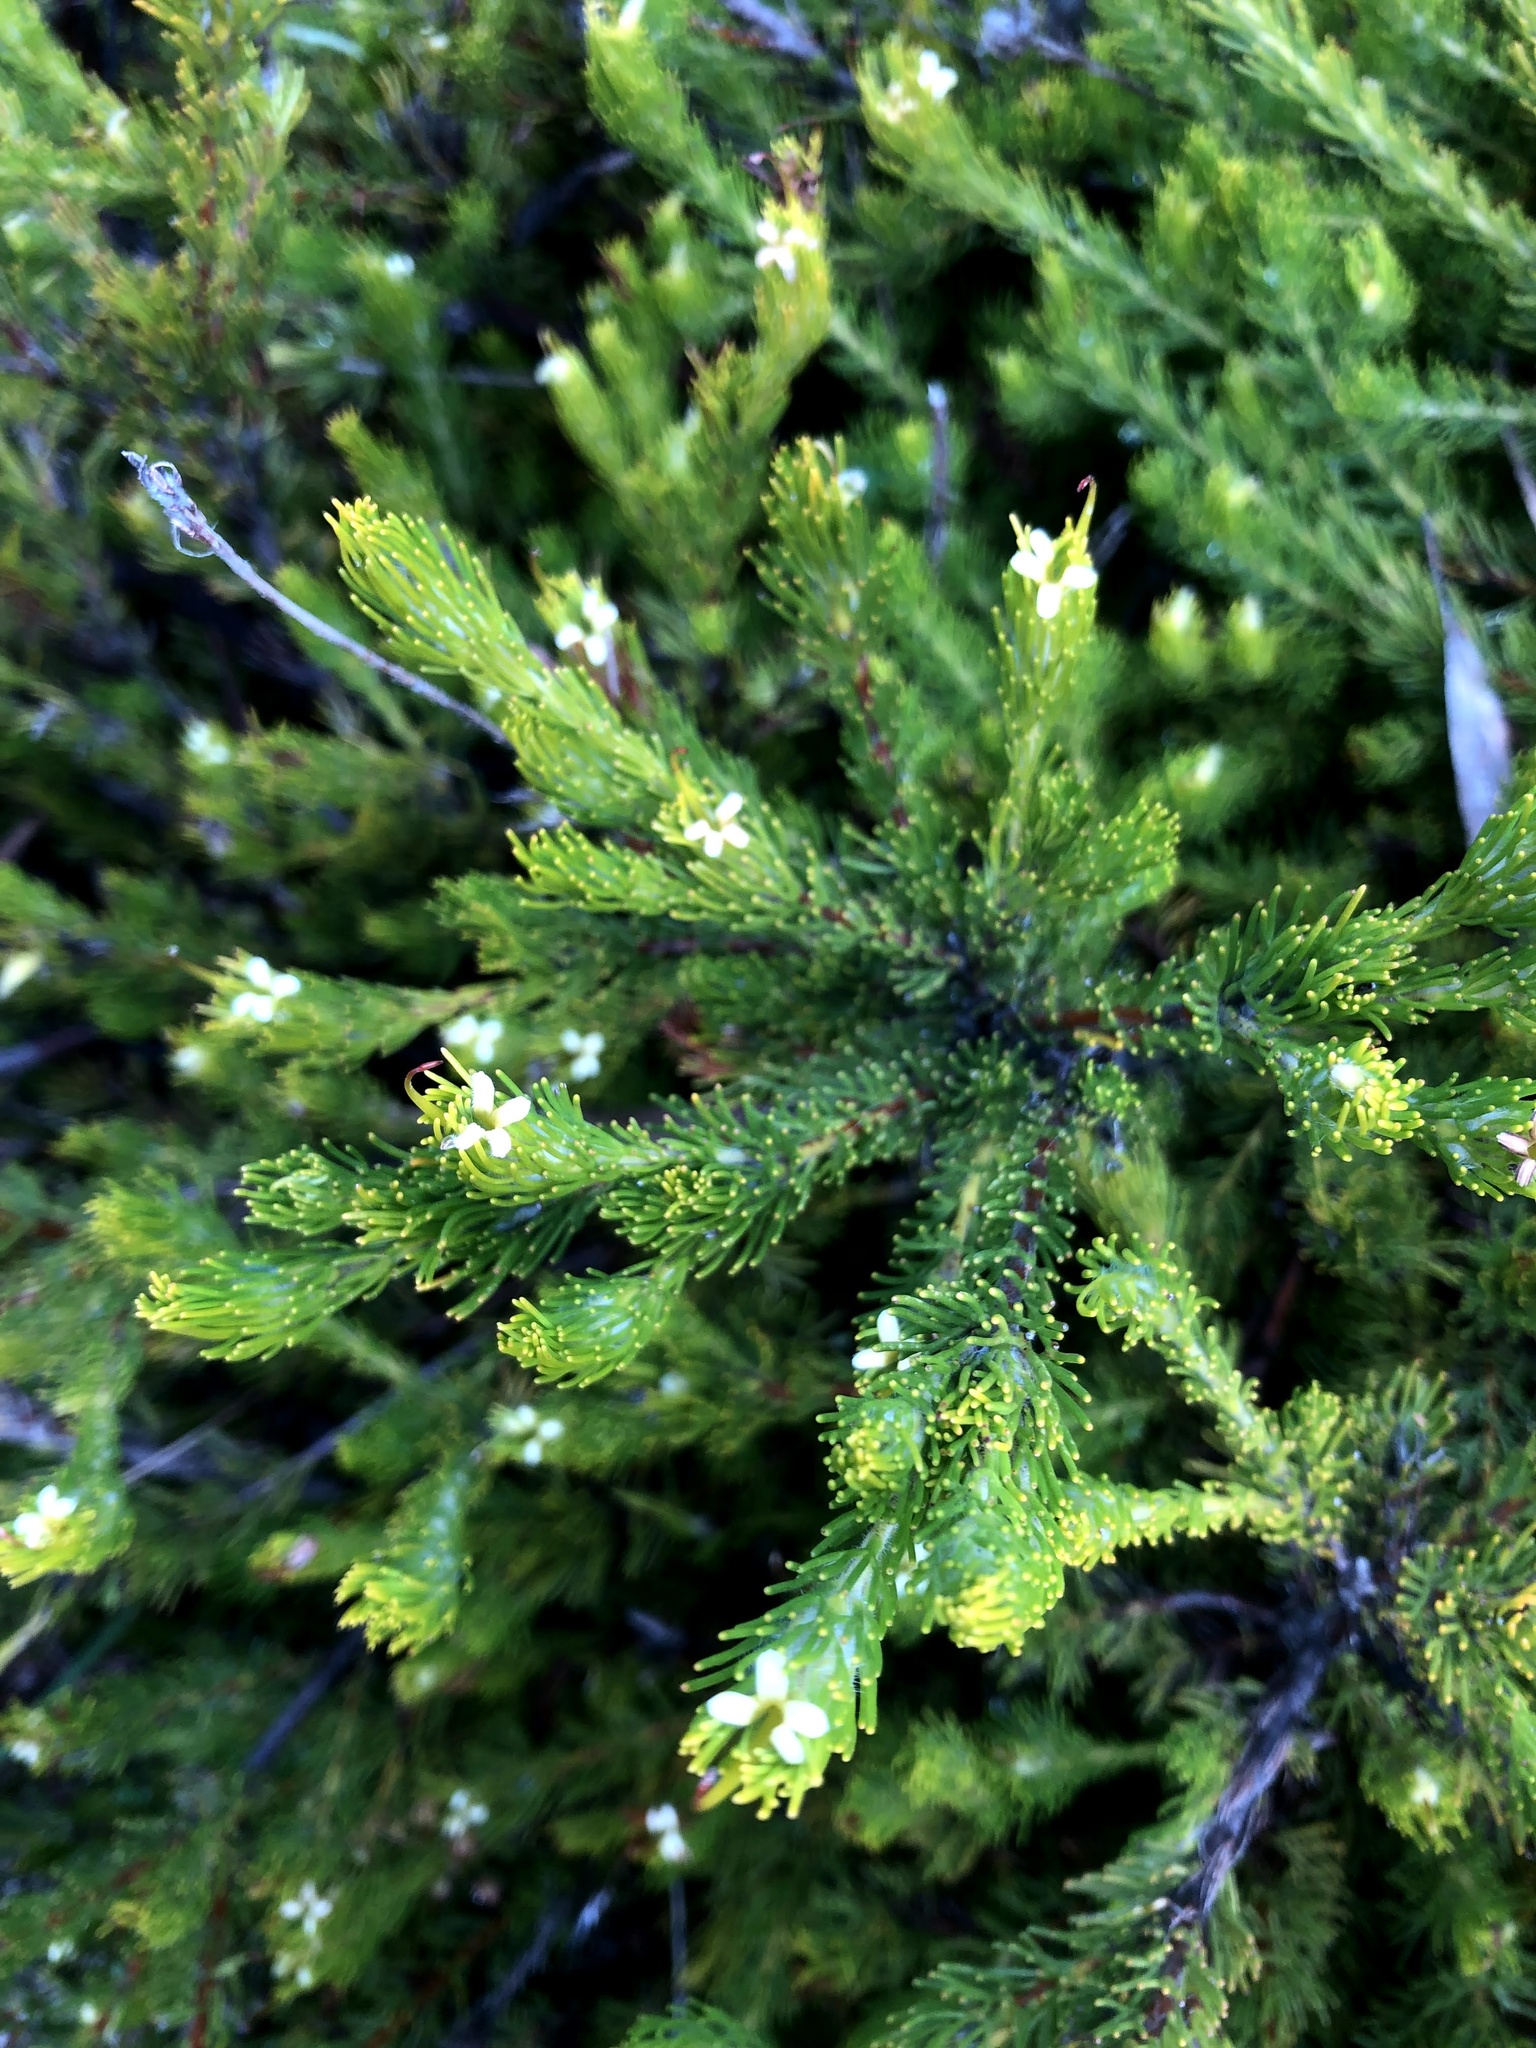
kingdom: Plantae
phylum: Tracheophyta
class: Magnoliopsida
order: Proteales
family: Proteaceae
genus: Adenanthos
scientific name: Adenanthos terminalis
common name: Yellow gland-flower
